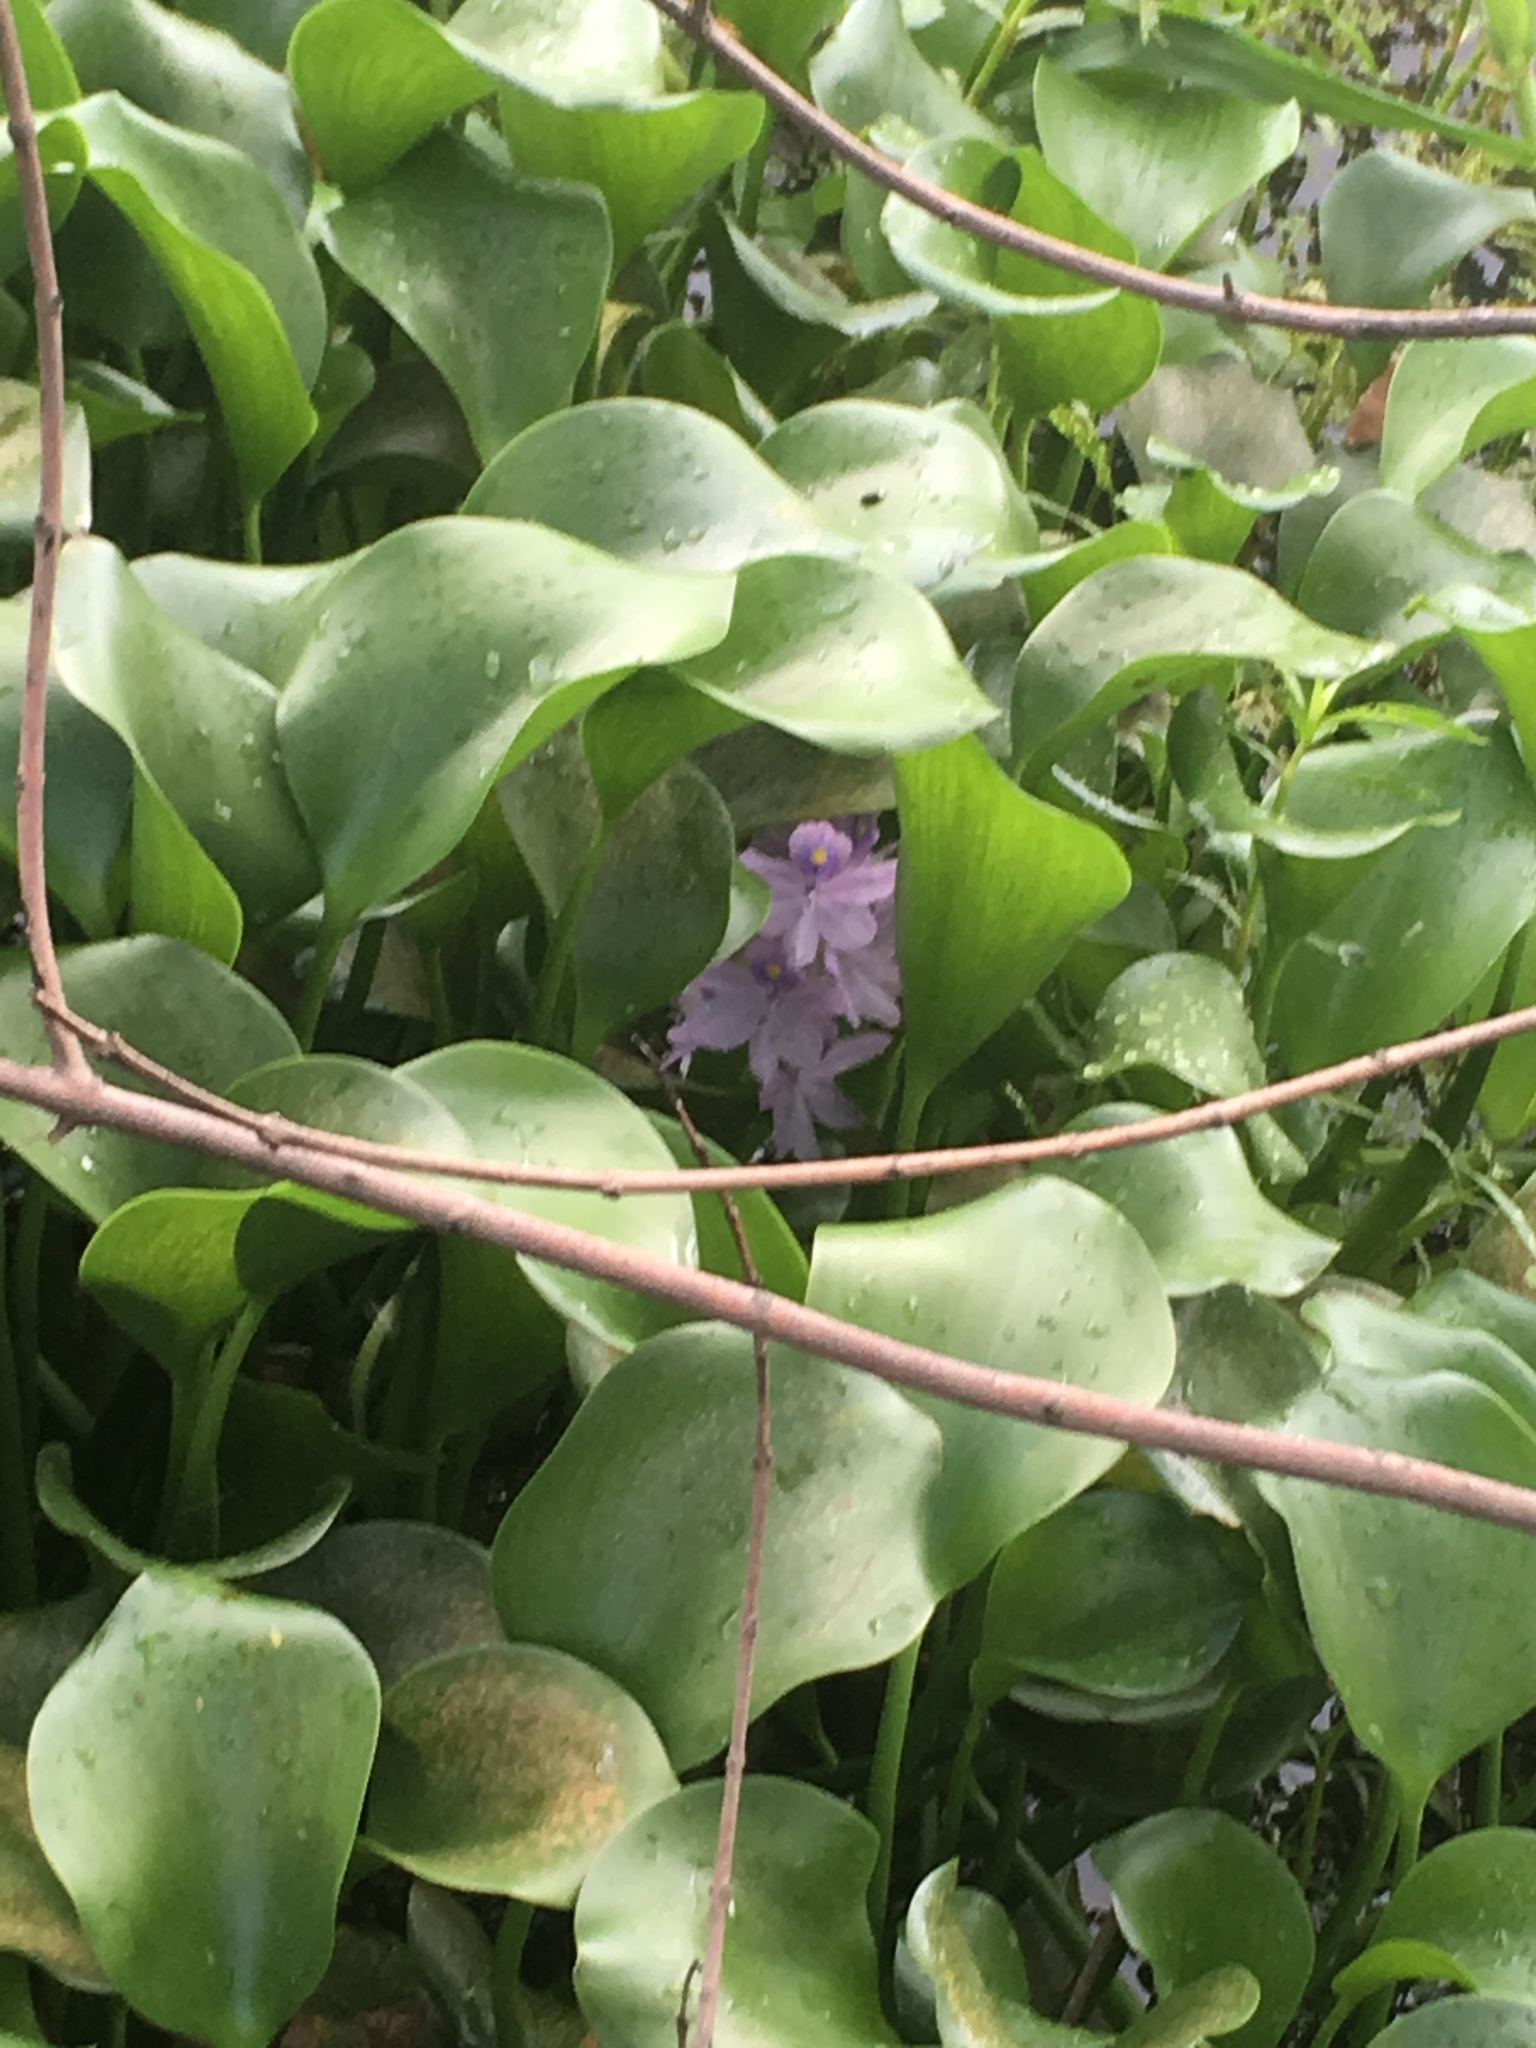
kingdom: Plantae
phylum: Tracheophyta
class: Liliopsida
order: Commelinales
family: Pontederiaceae
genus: Pontederia
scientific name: Pontederia crassipes
